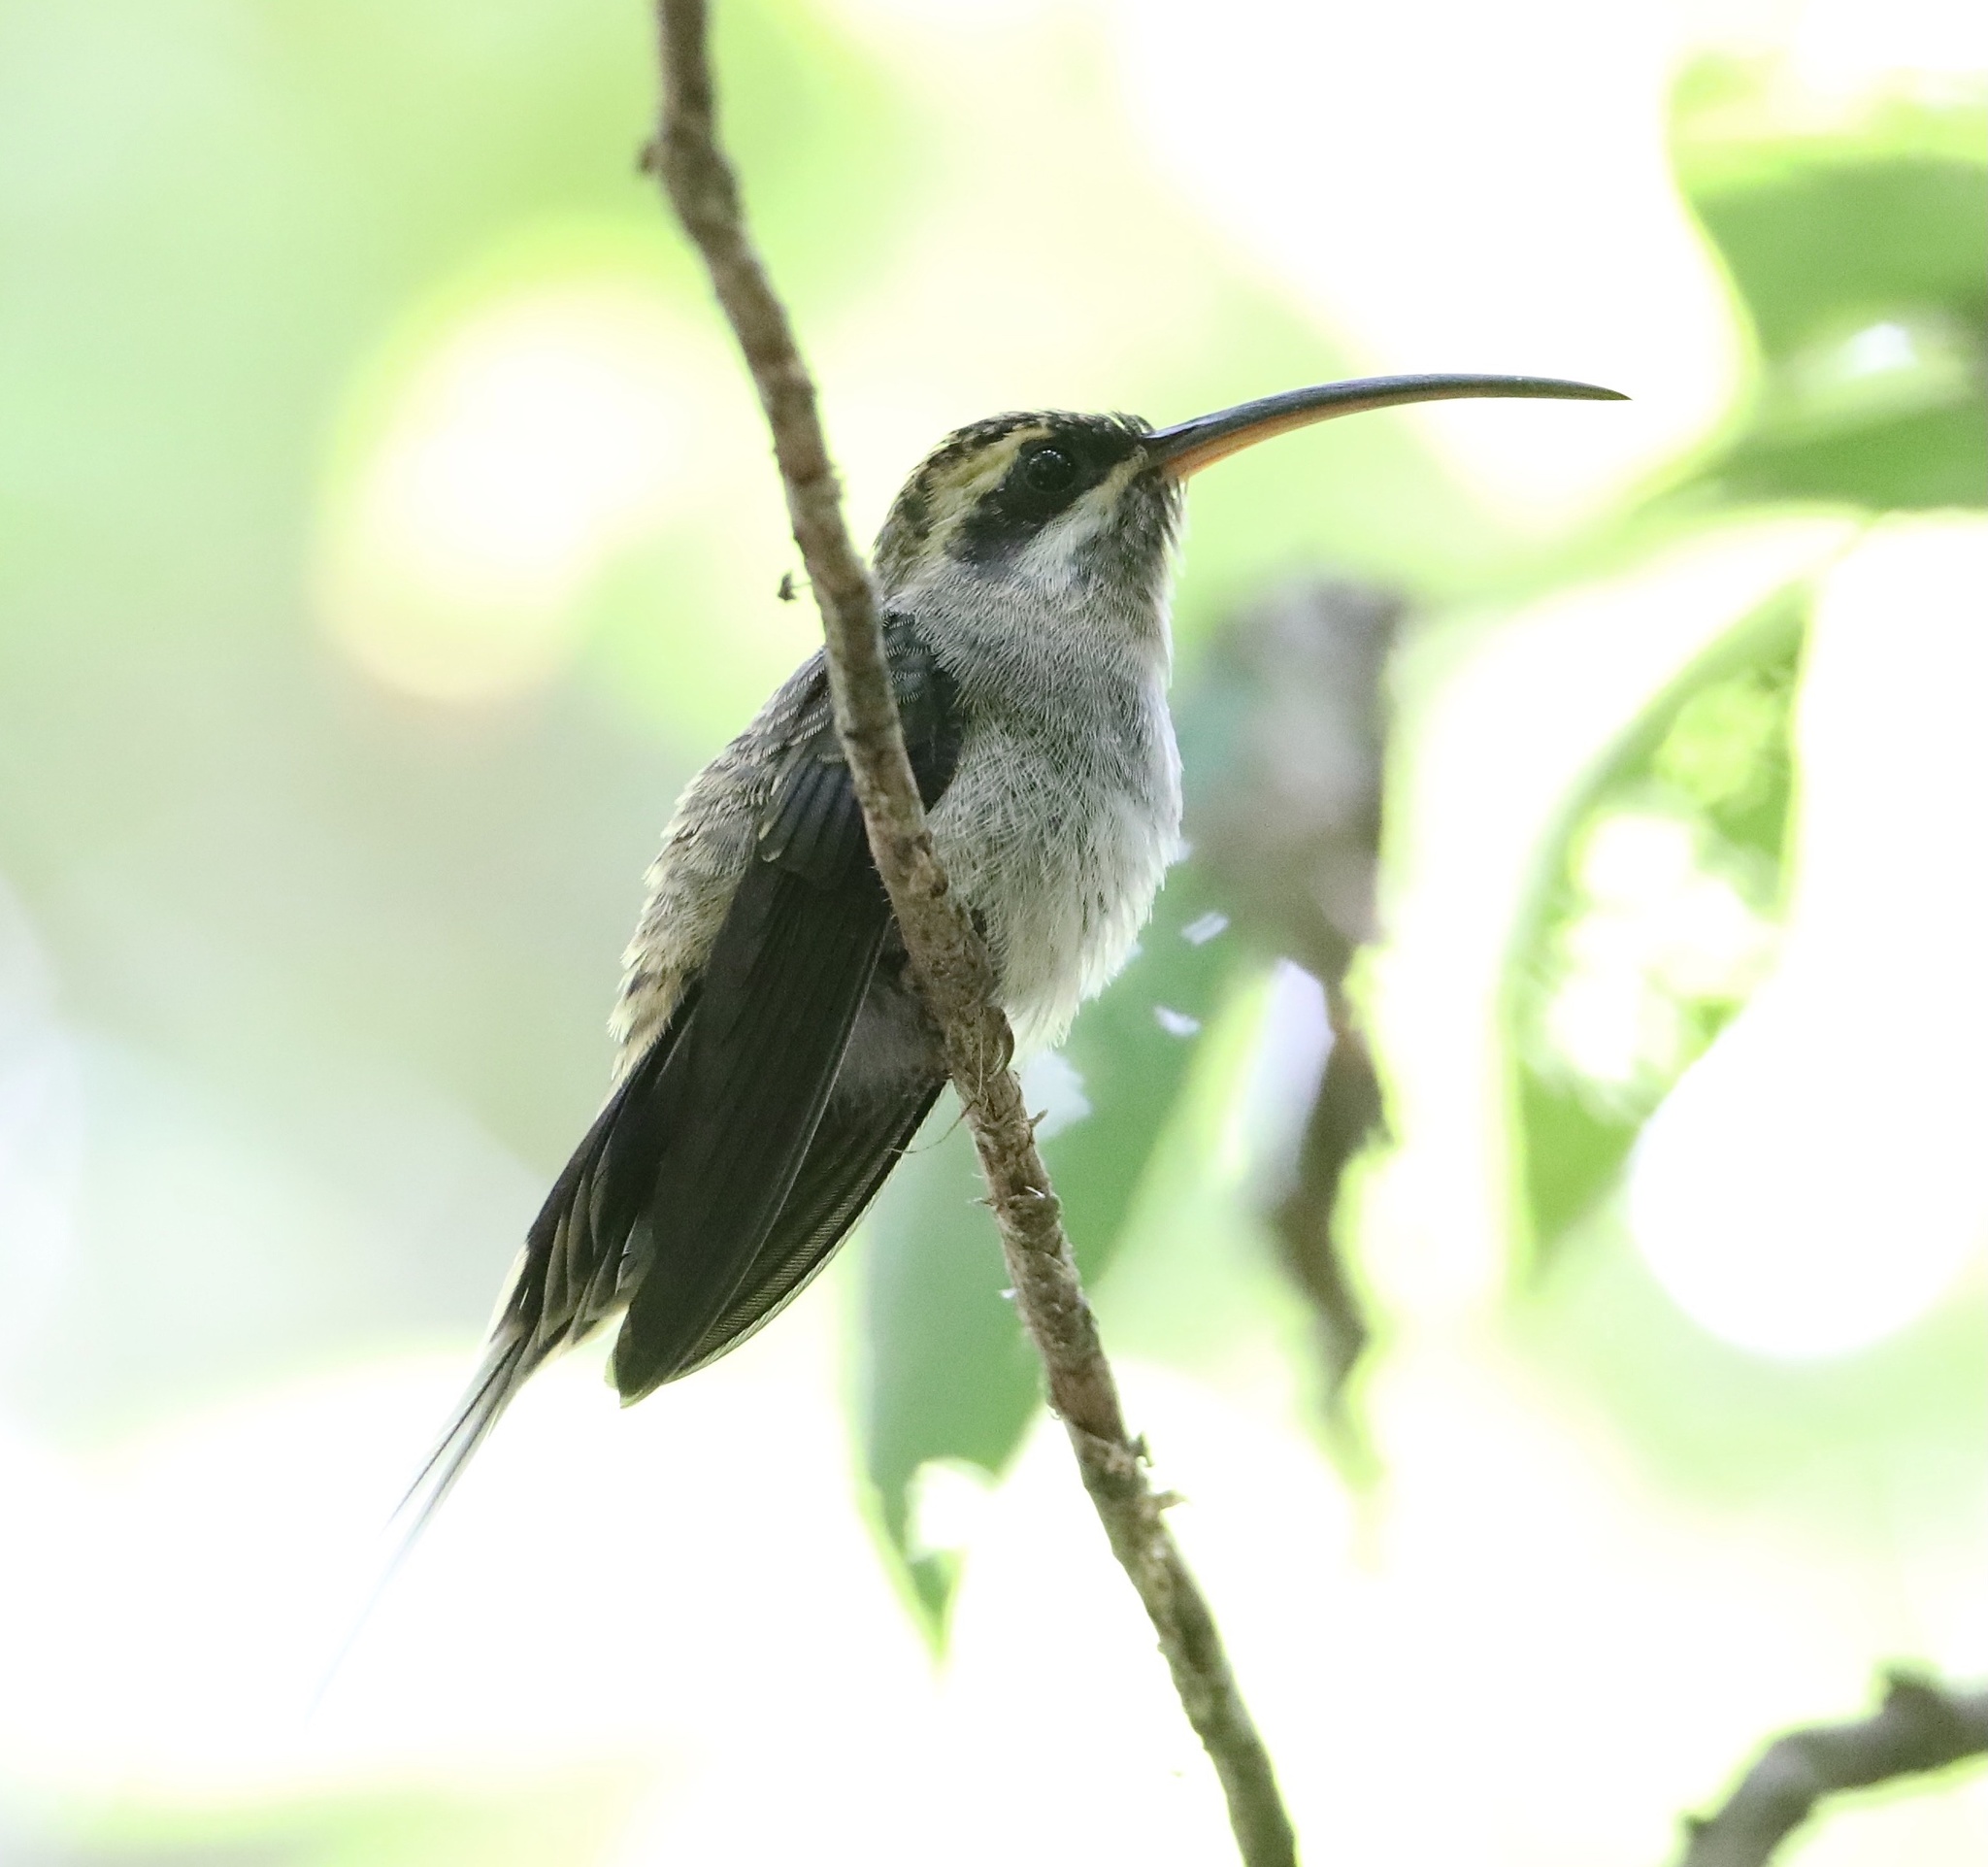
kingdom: Animalia
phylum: Chordata
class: Aves
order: Apodiformes
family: Trochilidae
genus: Phaethornis
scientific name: Phaethornis longirostris
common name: Long-billed hermit
